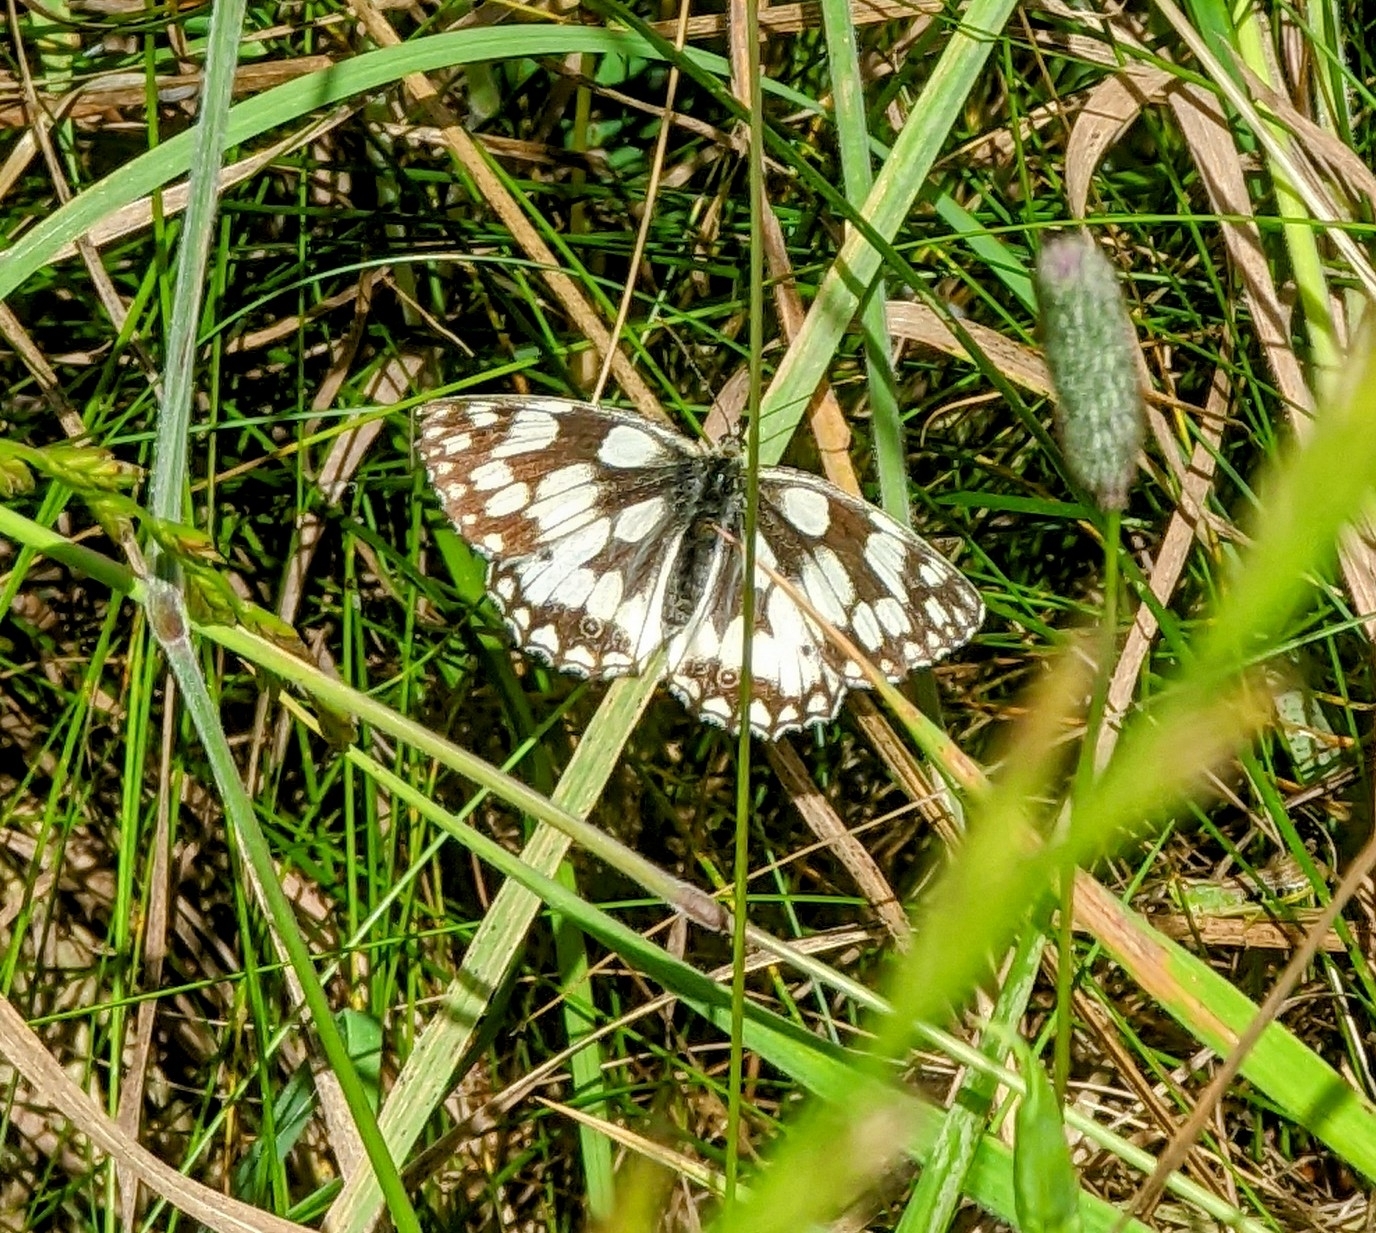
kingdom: Animalia
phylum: Arthropoda
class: Insecta
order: Lepidoptera
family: Nymphalidae
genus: Melanargia
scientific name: Melanargia galathea
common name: Marbled white
